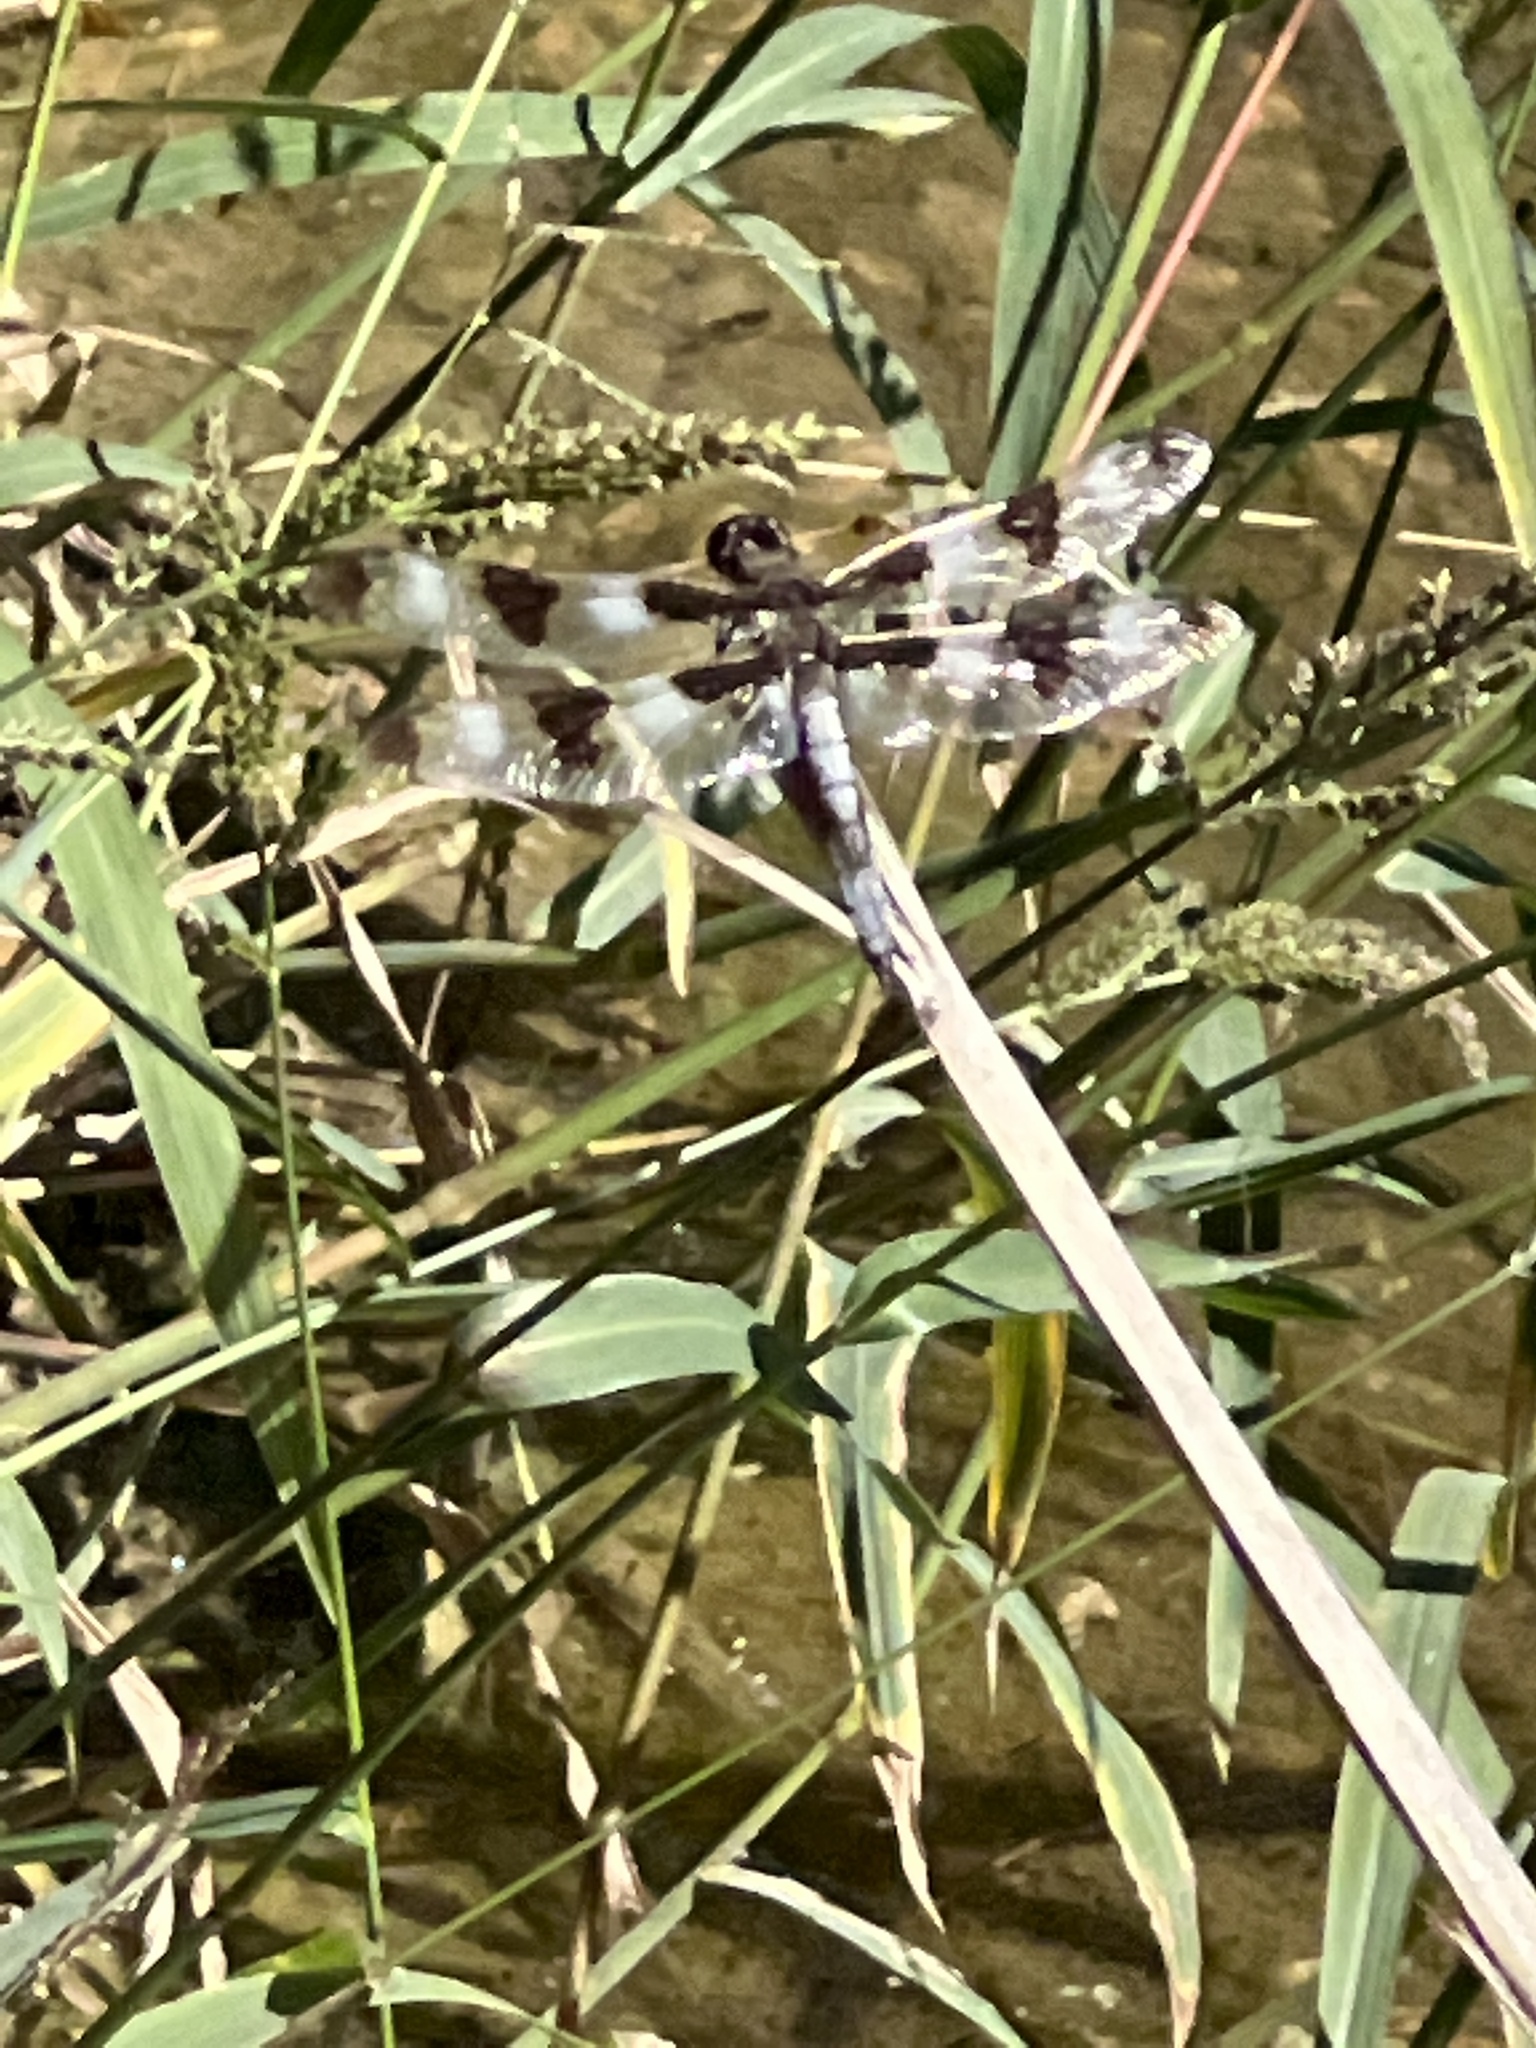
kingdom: Animalia
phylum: Arthropoda
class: Insecta
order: Odonata
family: Libellulidae
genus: Libellula
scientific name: Libellula pulchella
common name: Twelve-spotted skimmer
